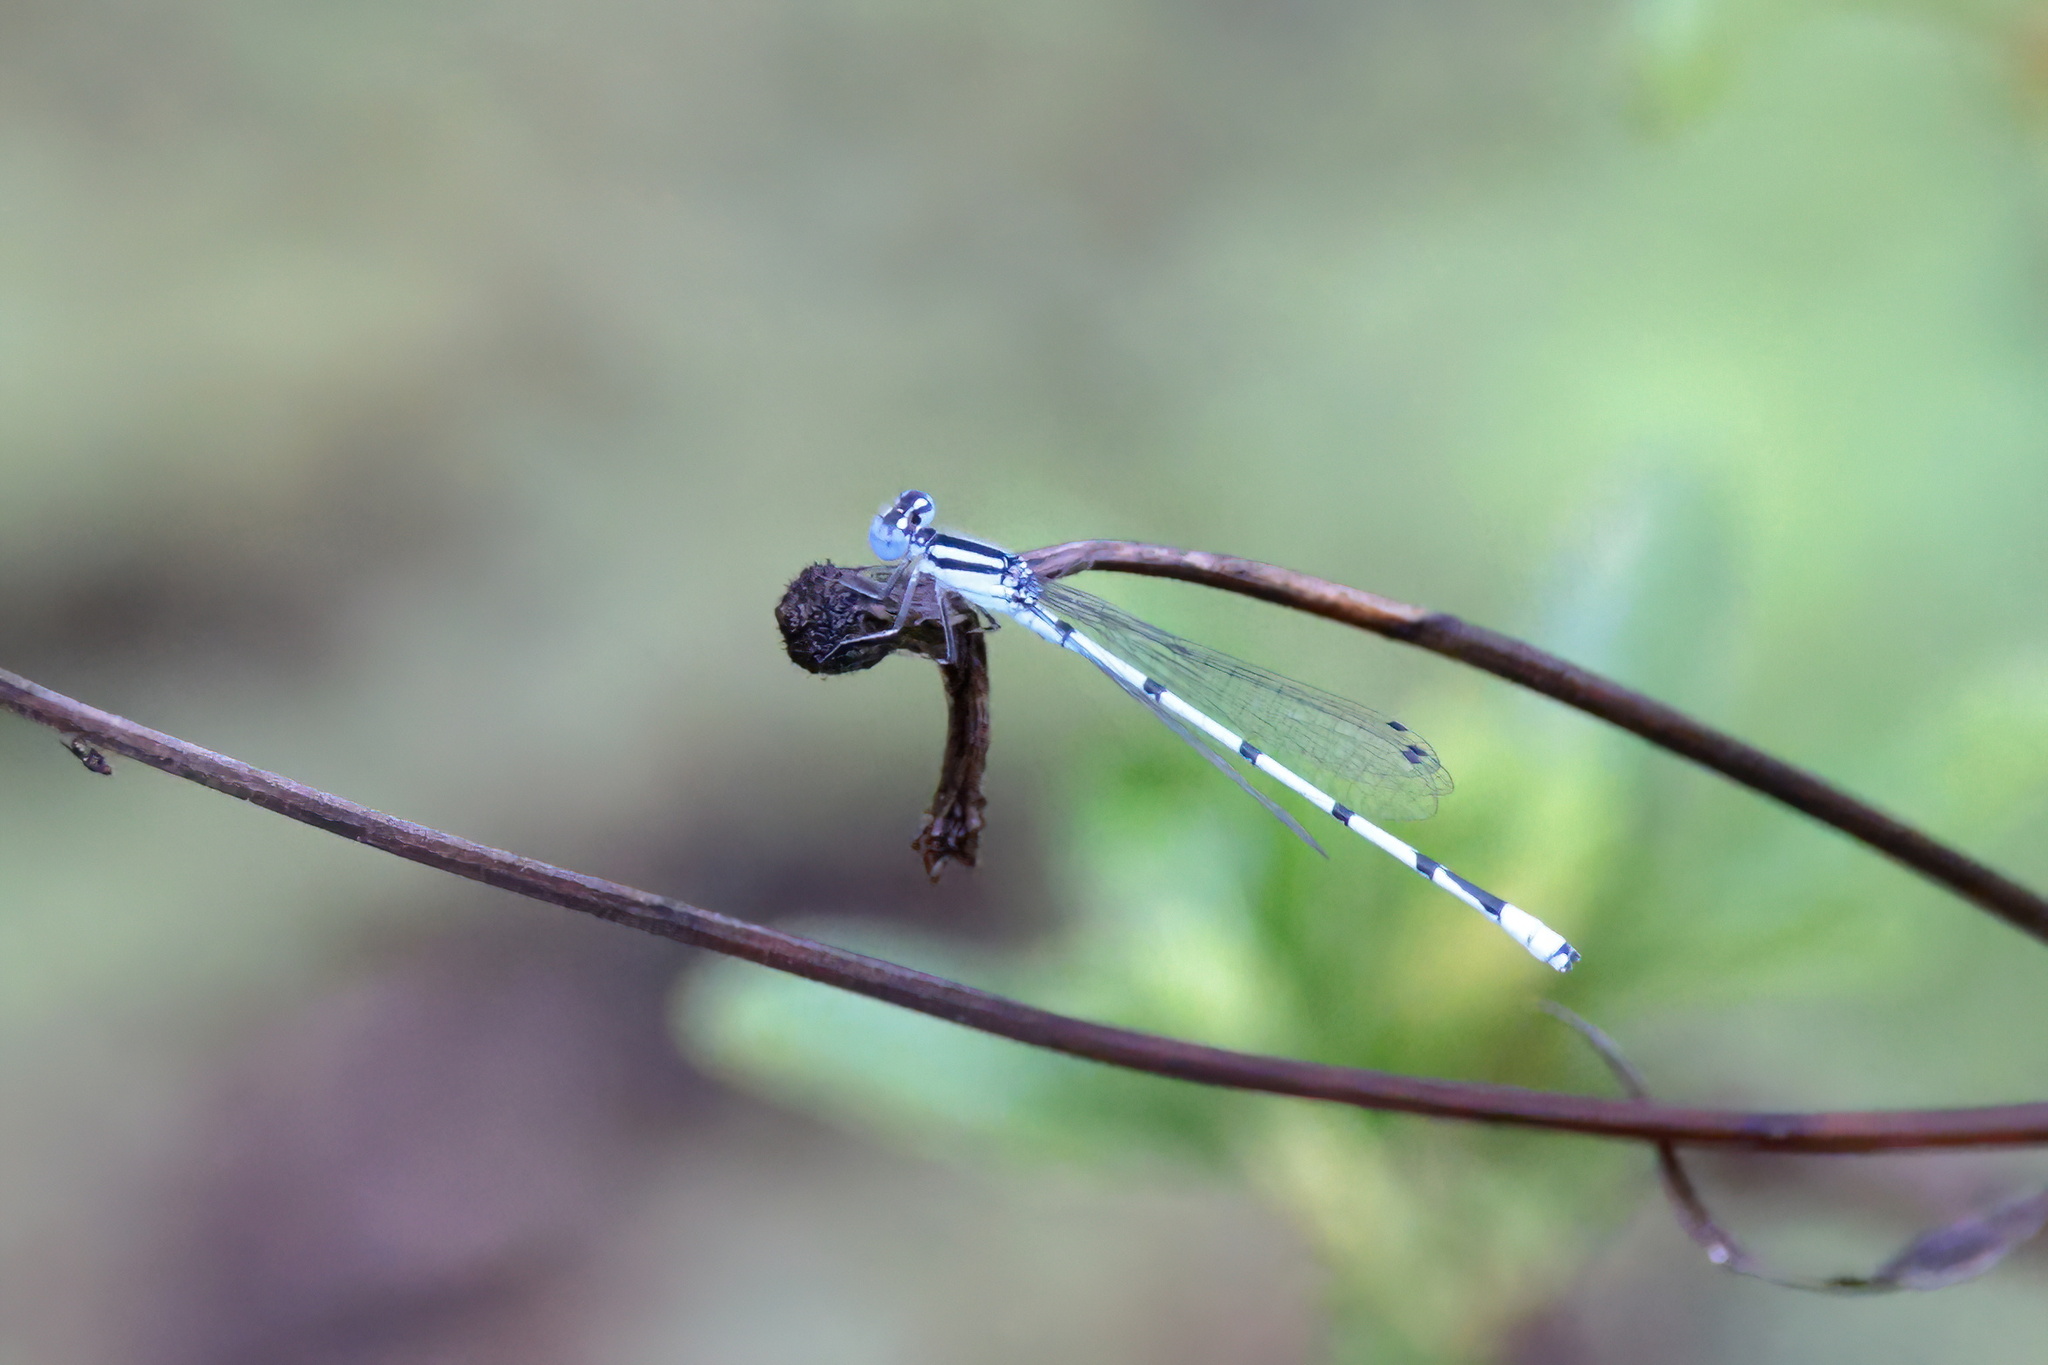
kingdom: Animalia
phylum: Arthropoda
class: Insecta
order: Odonata
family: Coenagrionidae
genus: Enallagma
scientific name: Enallagma doubledayi
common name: Atlantic bluet
